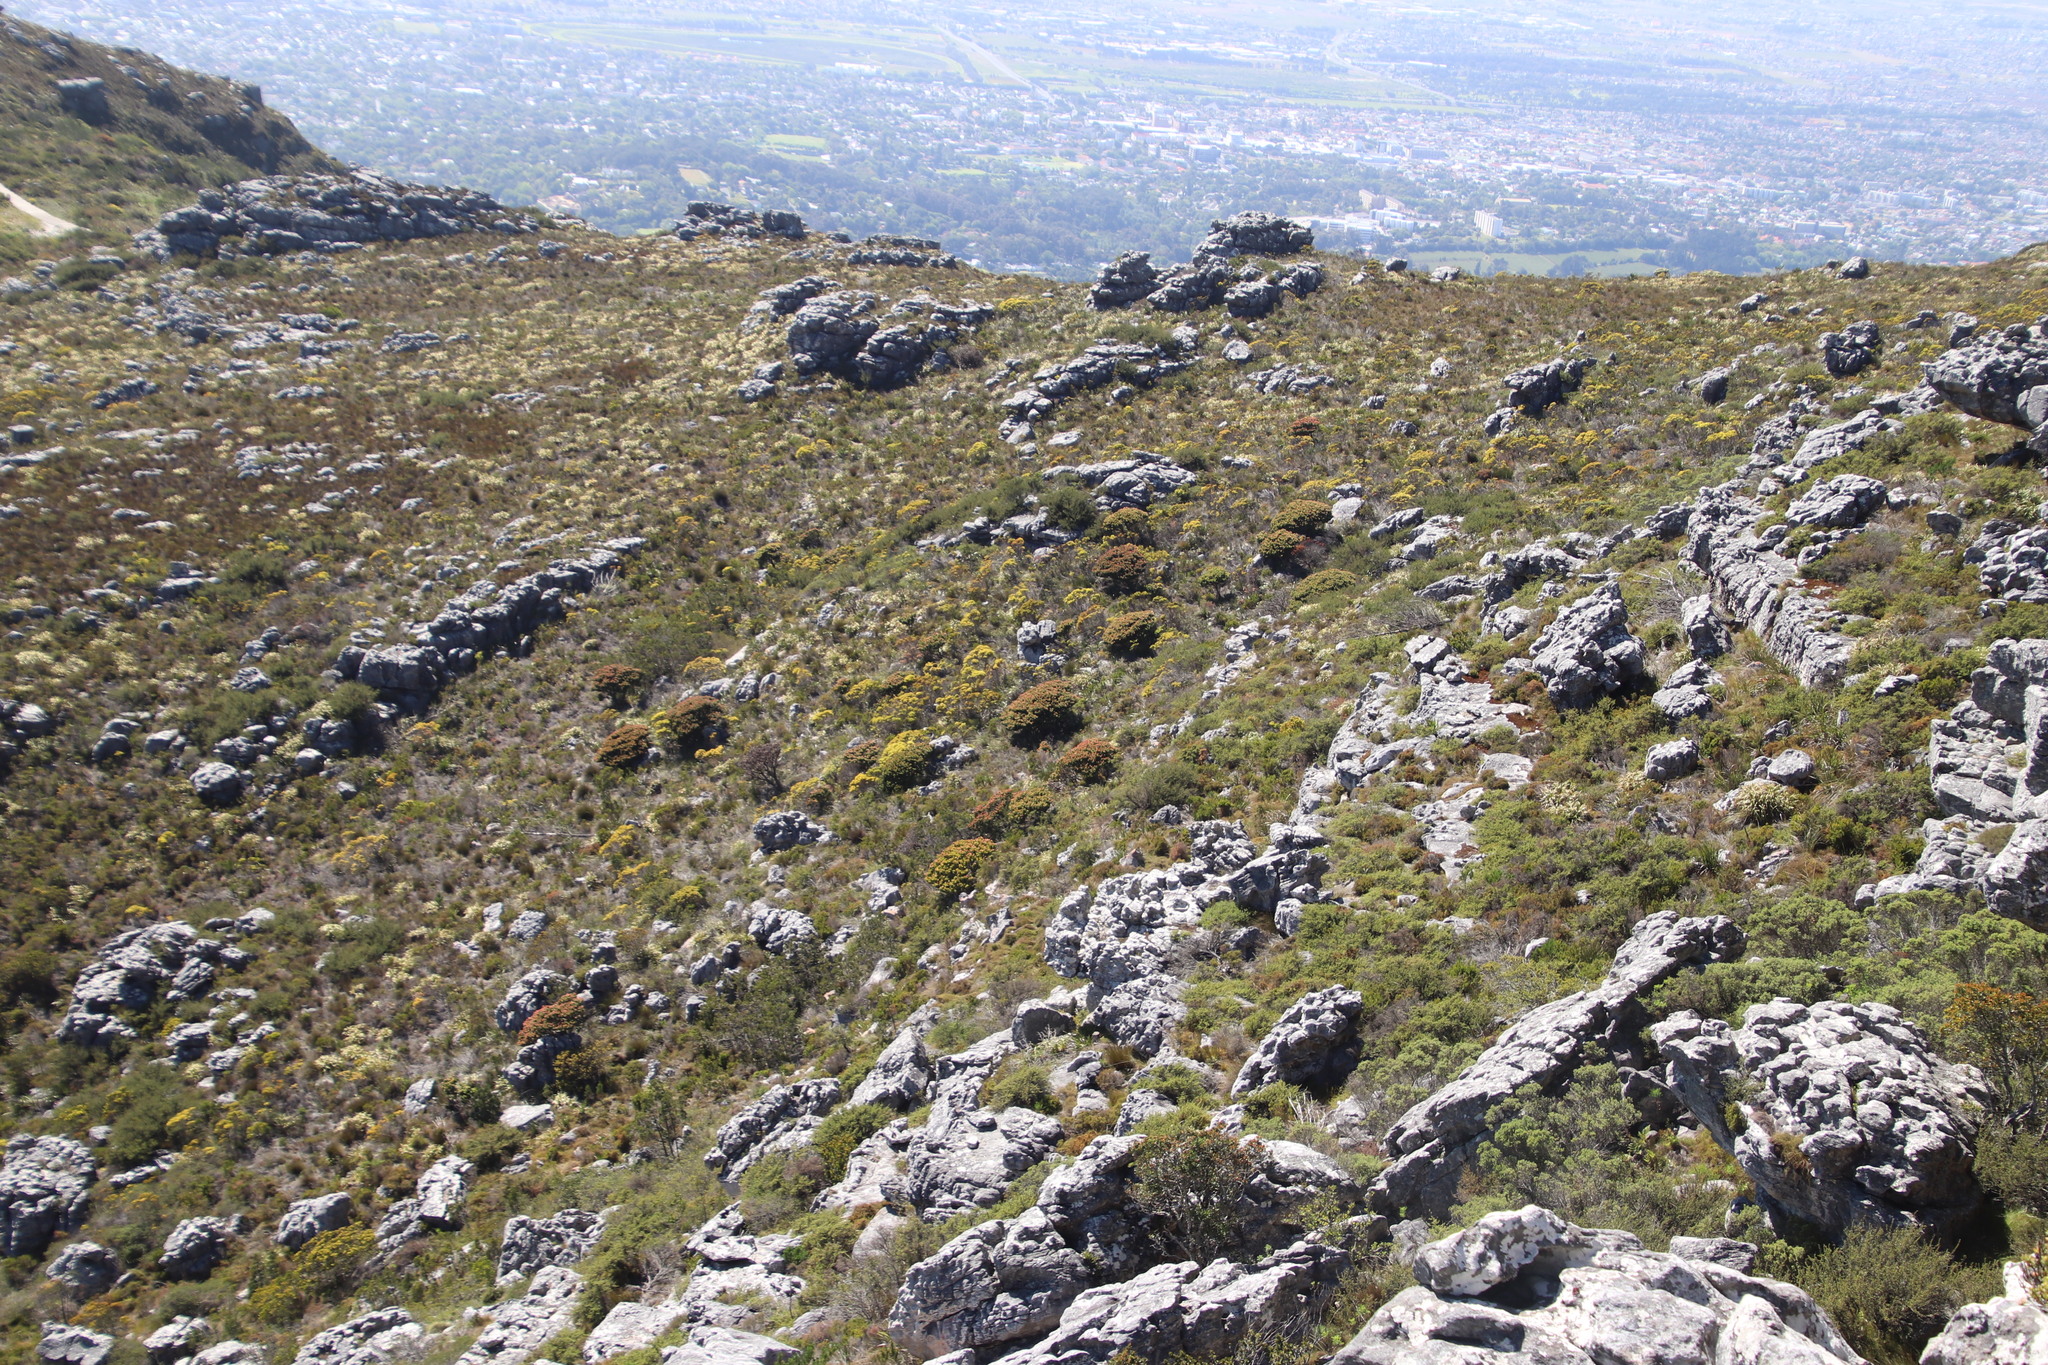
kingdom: Plantae
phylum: Tracheophyta
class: Magnoliopsida
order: Proteales
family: Proteaceae
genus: Mimetes
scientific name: Mimetes fimbriifolius
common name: Fringed bottlebrush
